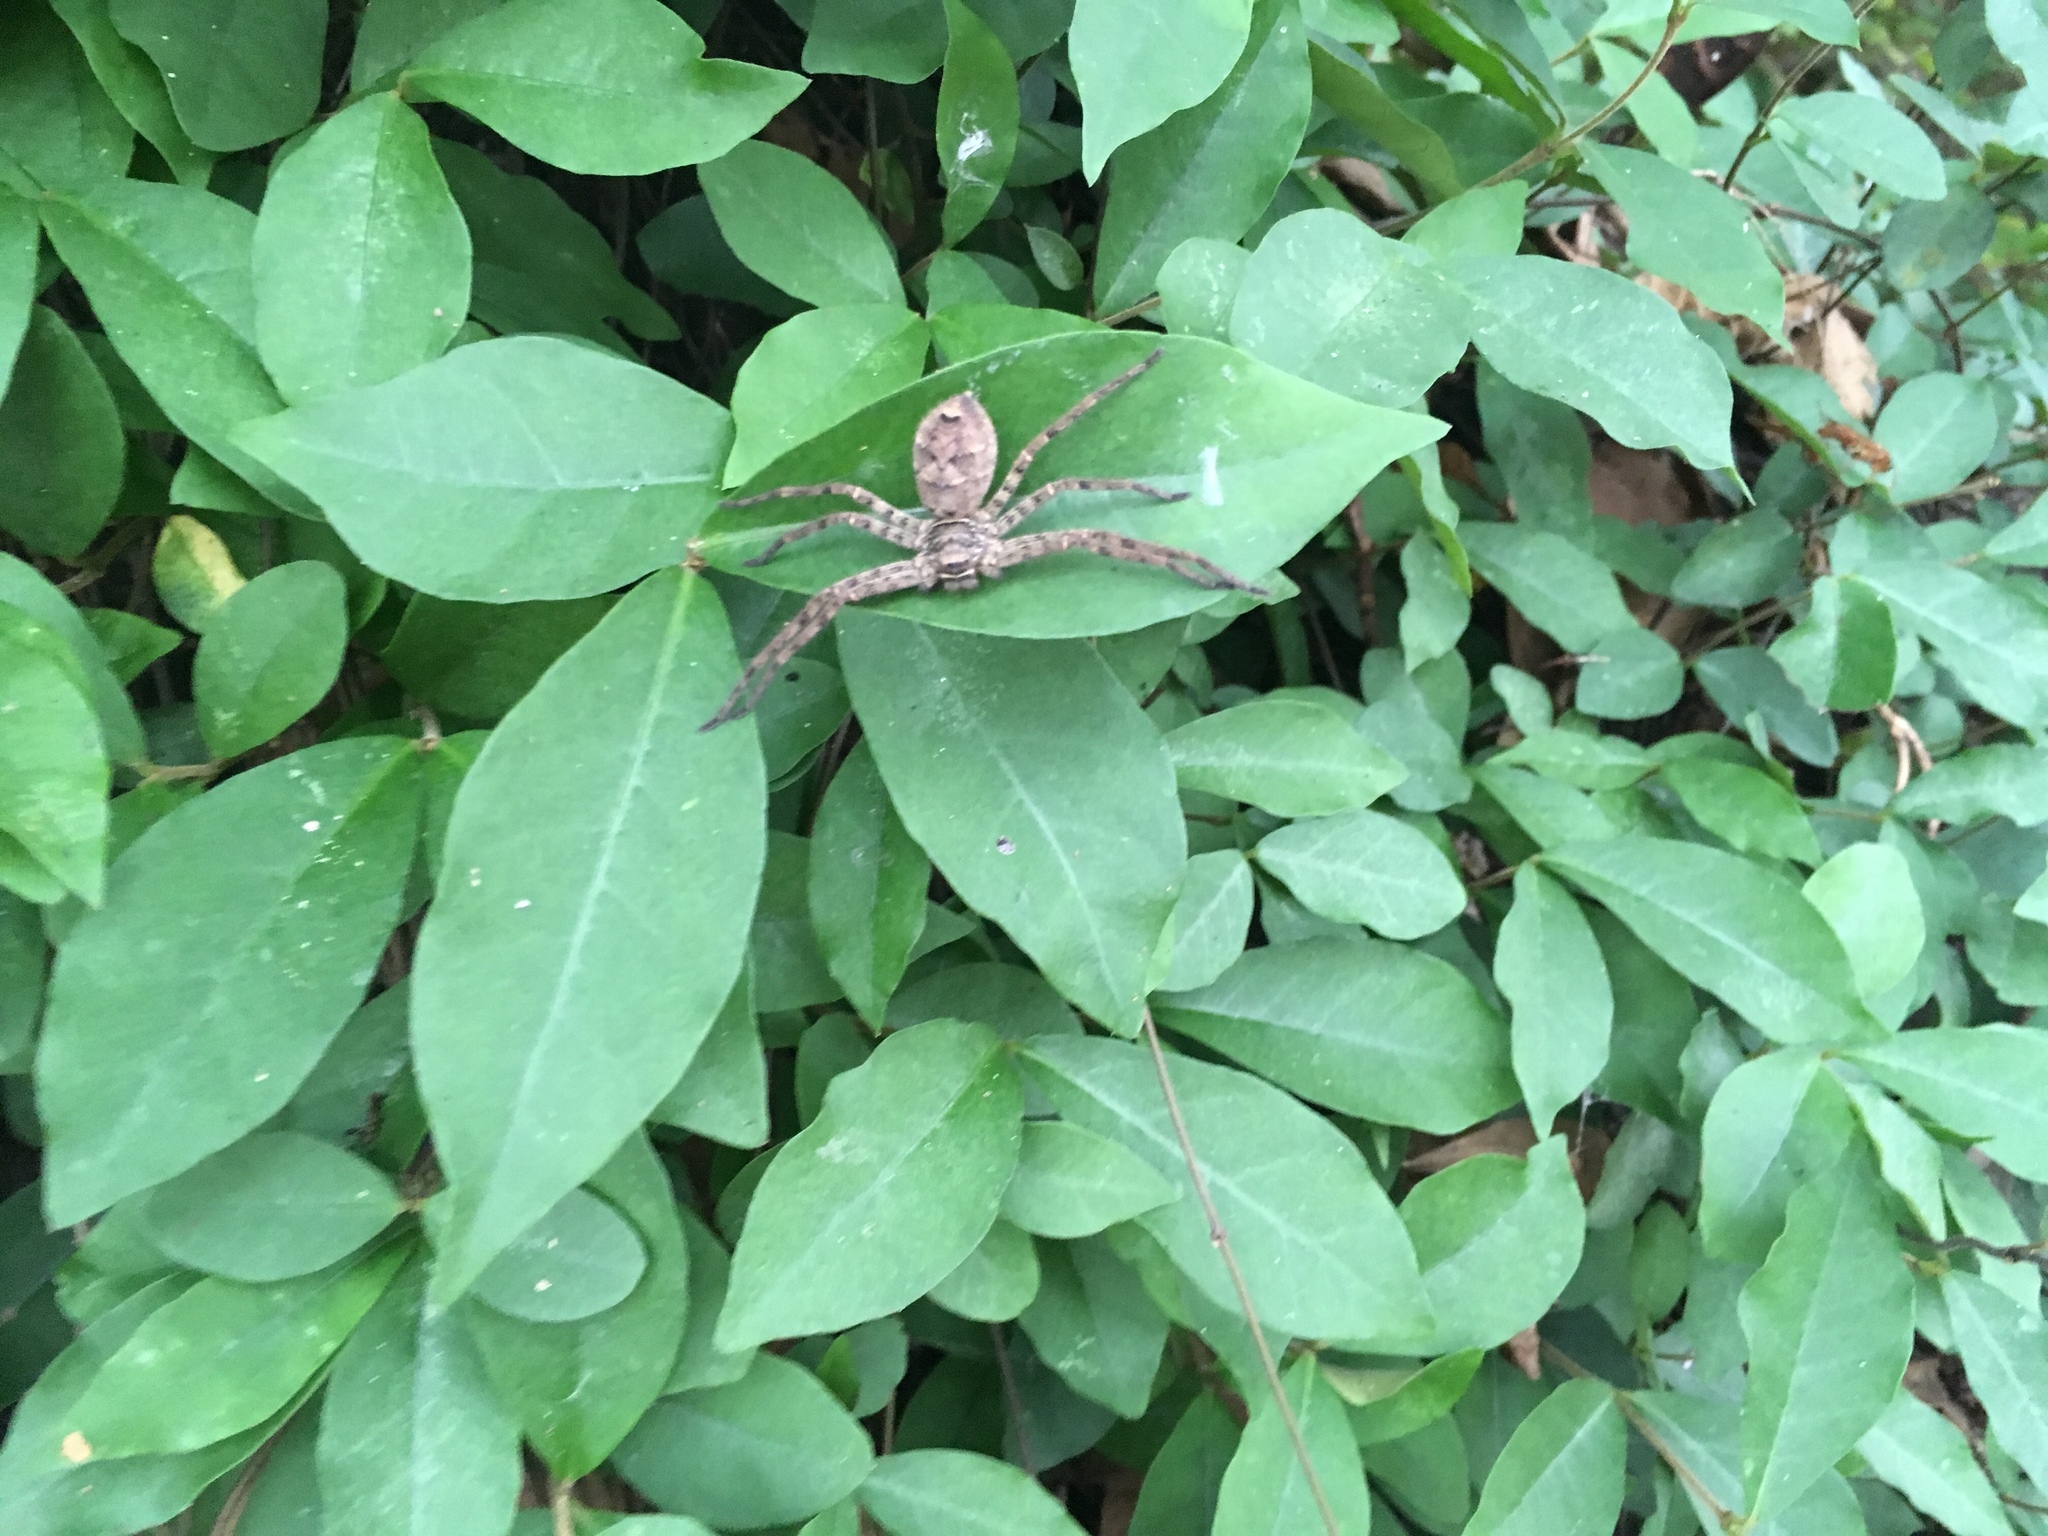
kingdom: Animalia
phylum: Arthropoda
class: Arachnida
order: Araneae
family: Sparassidae
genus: Heteropoda
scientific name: Heteropoda venatoria
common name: Huntsman spider
